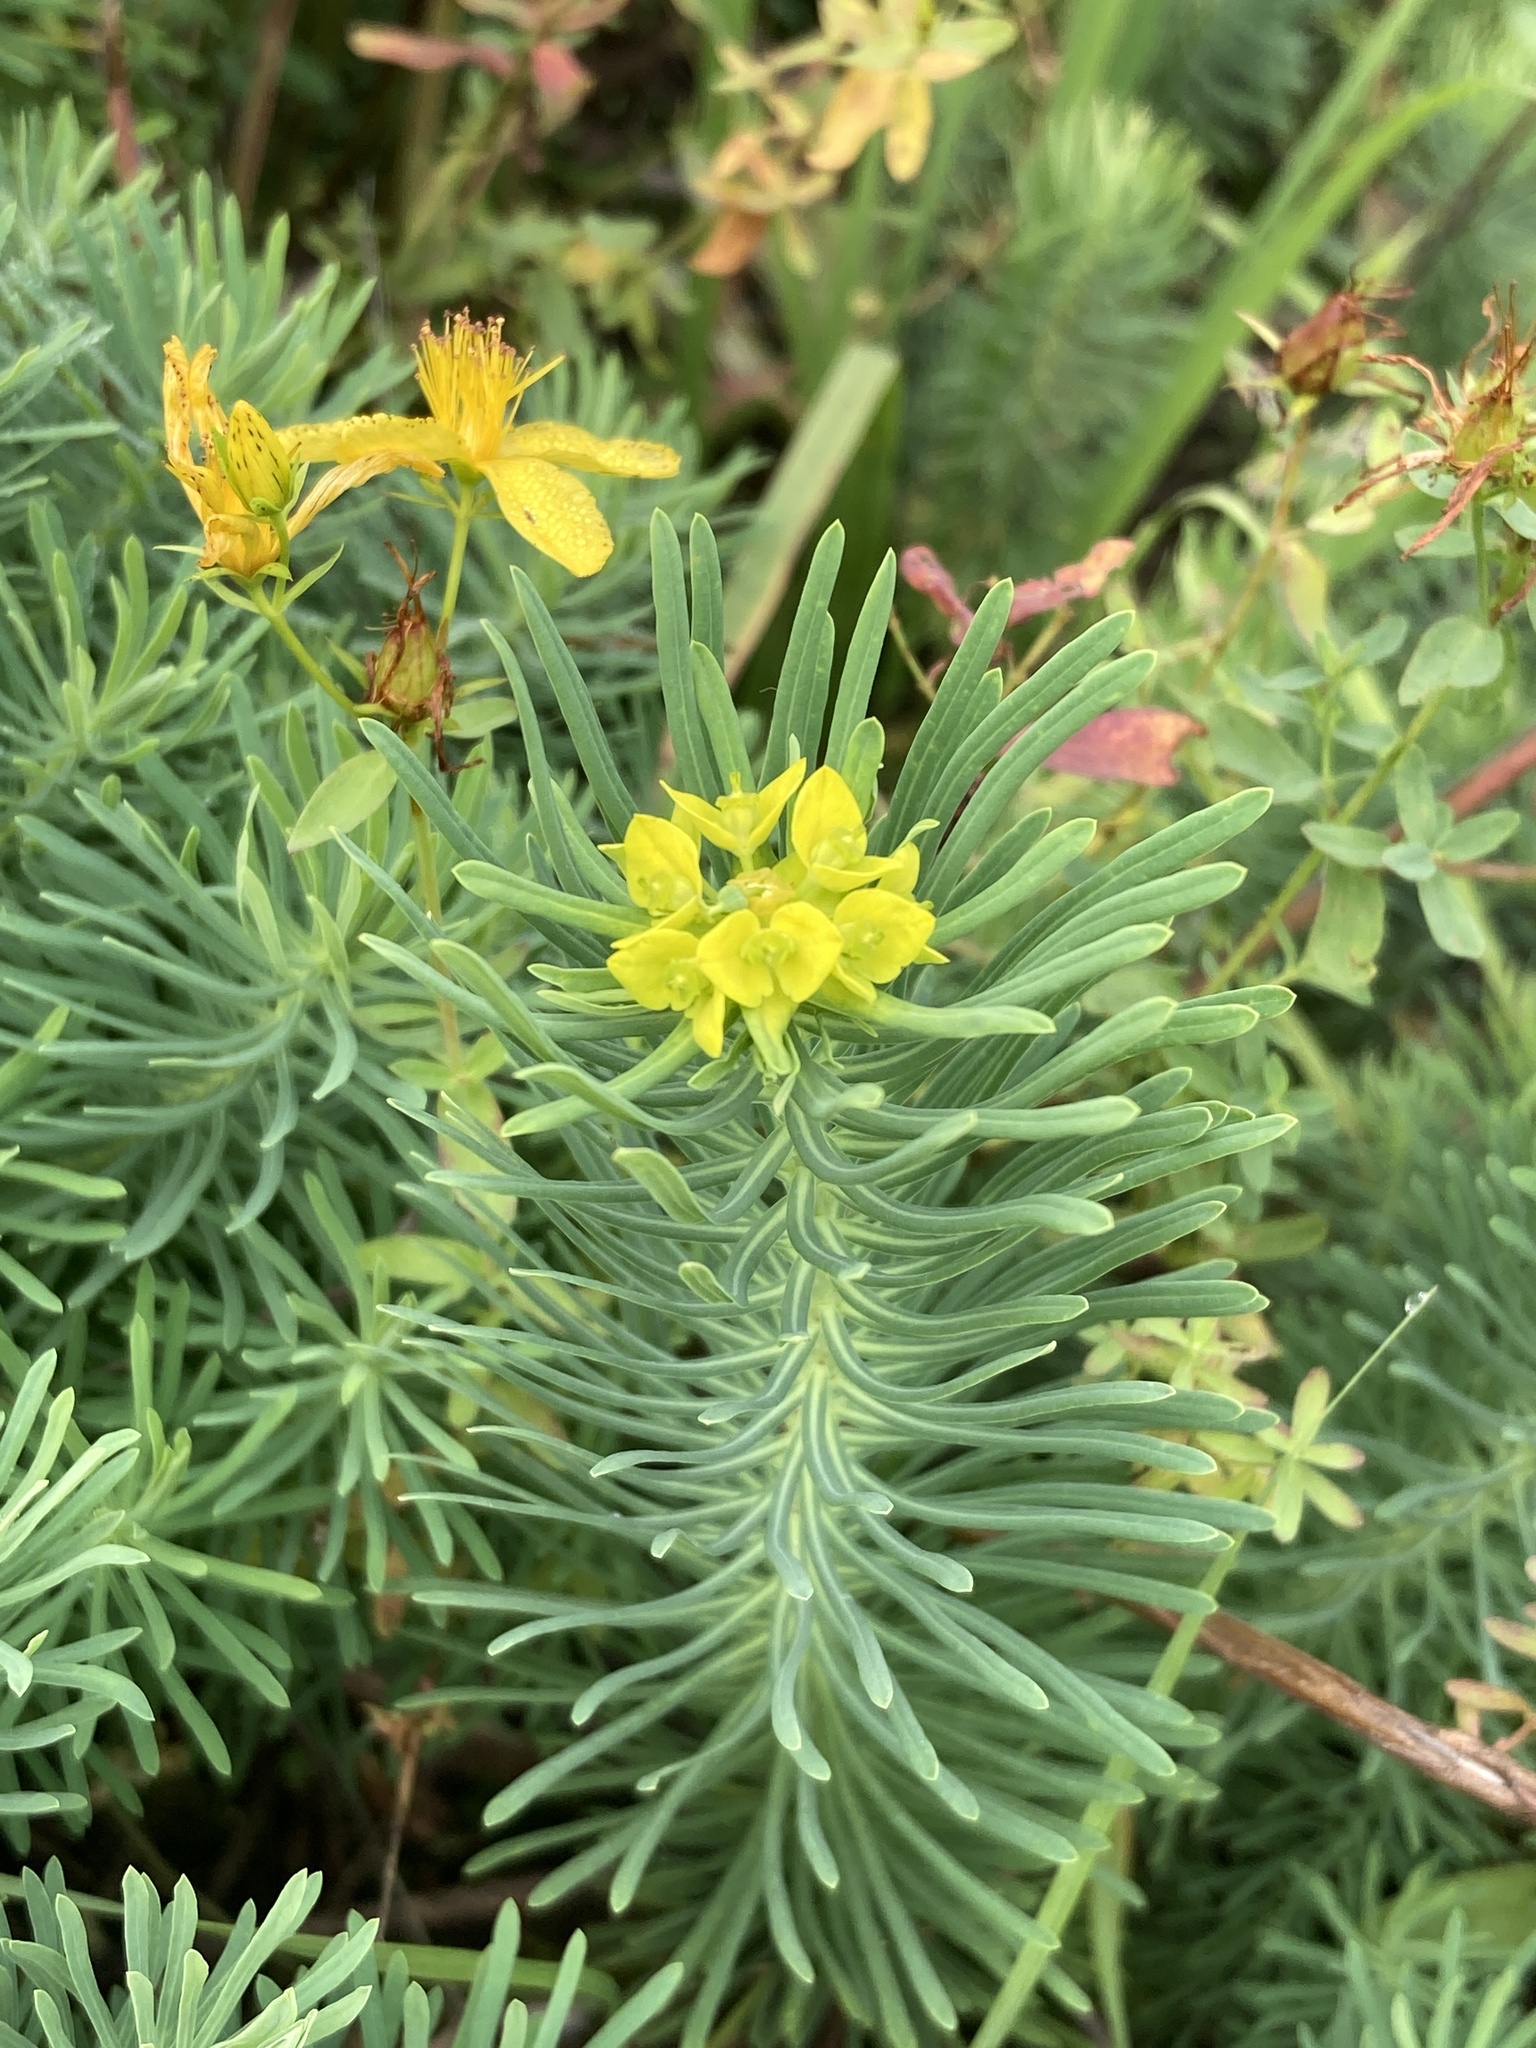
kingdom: Plantae
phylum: Tracheophyta
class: Magnoliopsida
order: Malpighiales
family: Euphorbiaceae
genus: Euphorbia
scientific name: Euphorbia cyparissias
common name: Cypress spurge
